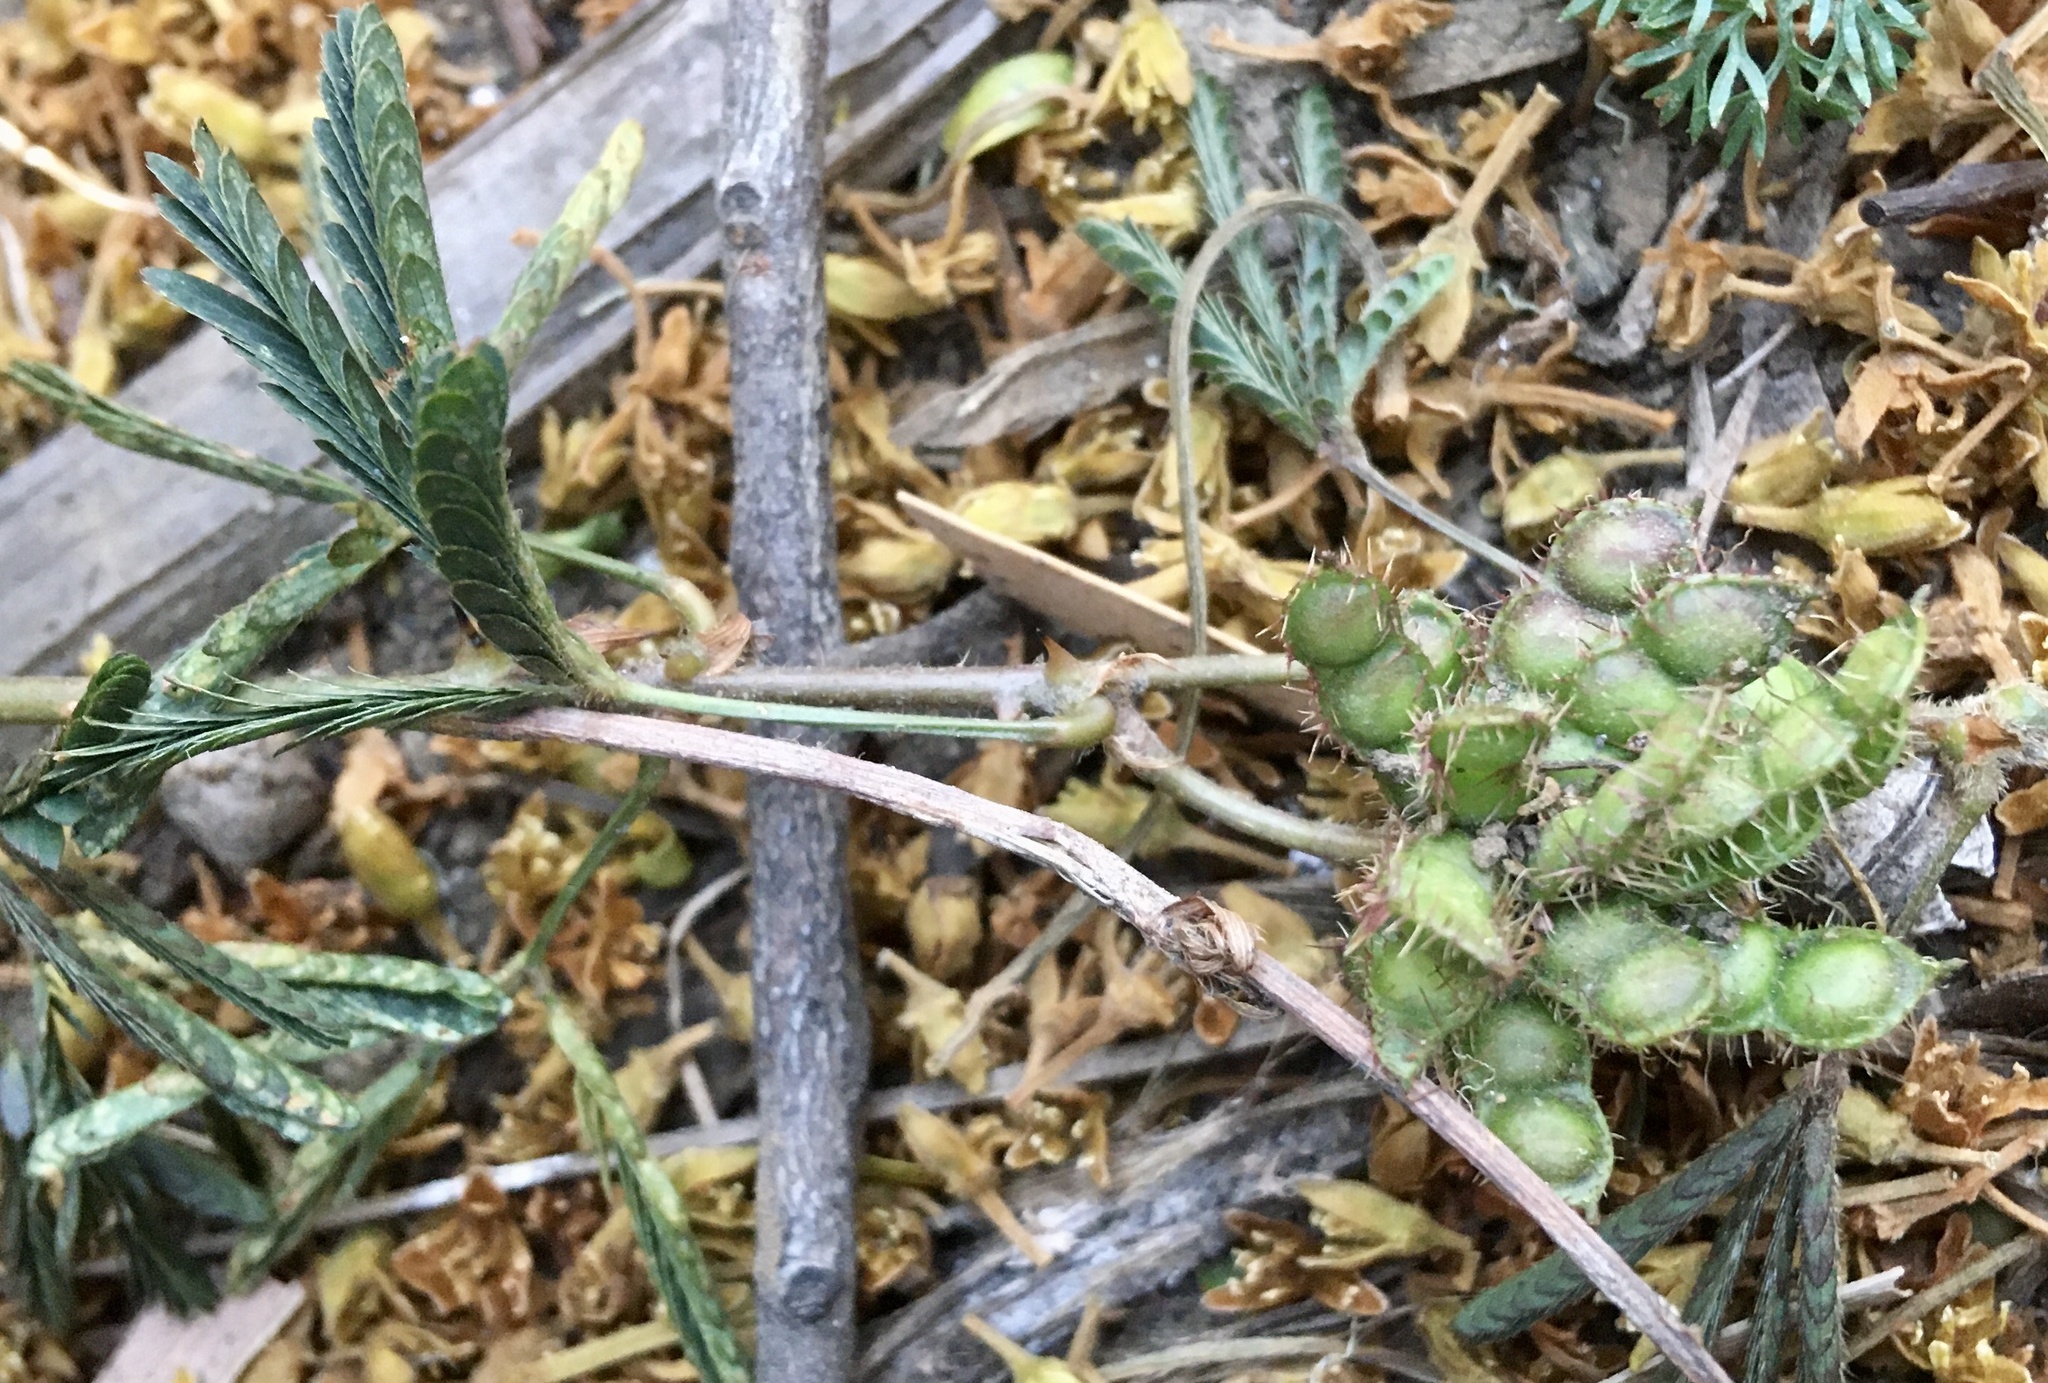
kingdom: Plantae
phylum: Tracheophyta
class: Magnoliopsida
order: Fabales
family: Fabaceae
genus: Mimosa
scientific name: Mimosa pudica
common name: Sensitive plant
